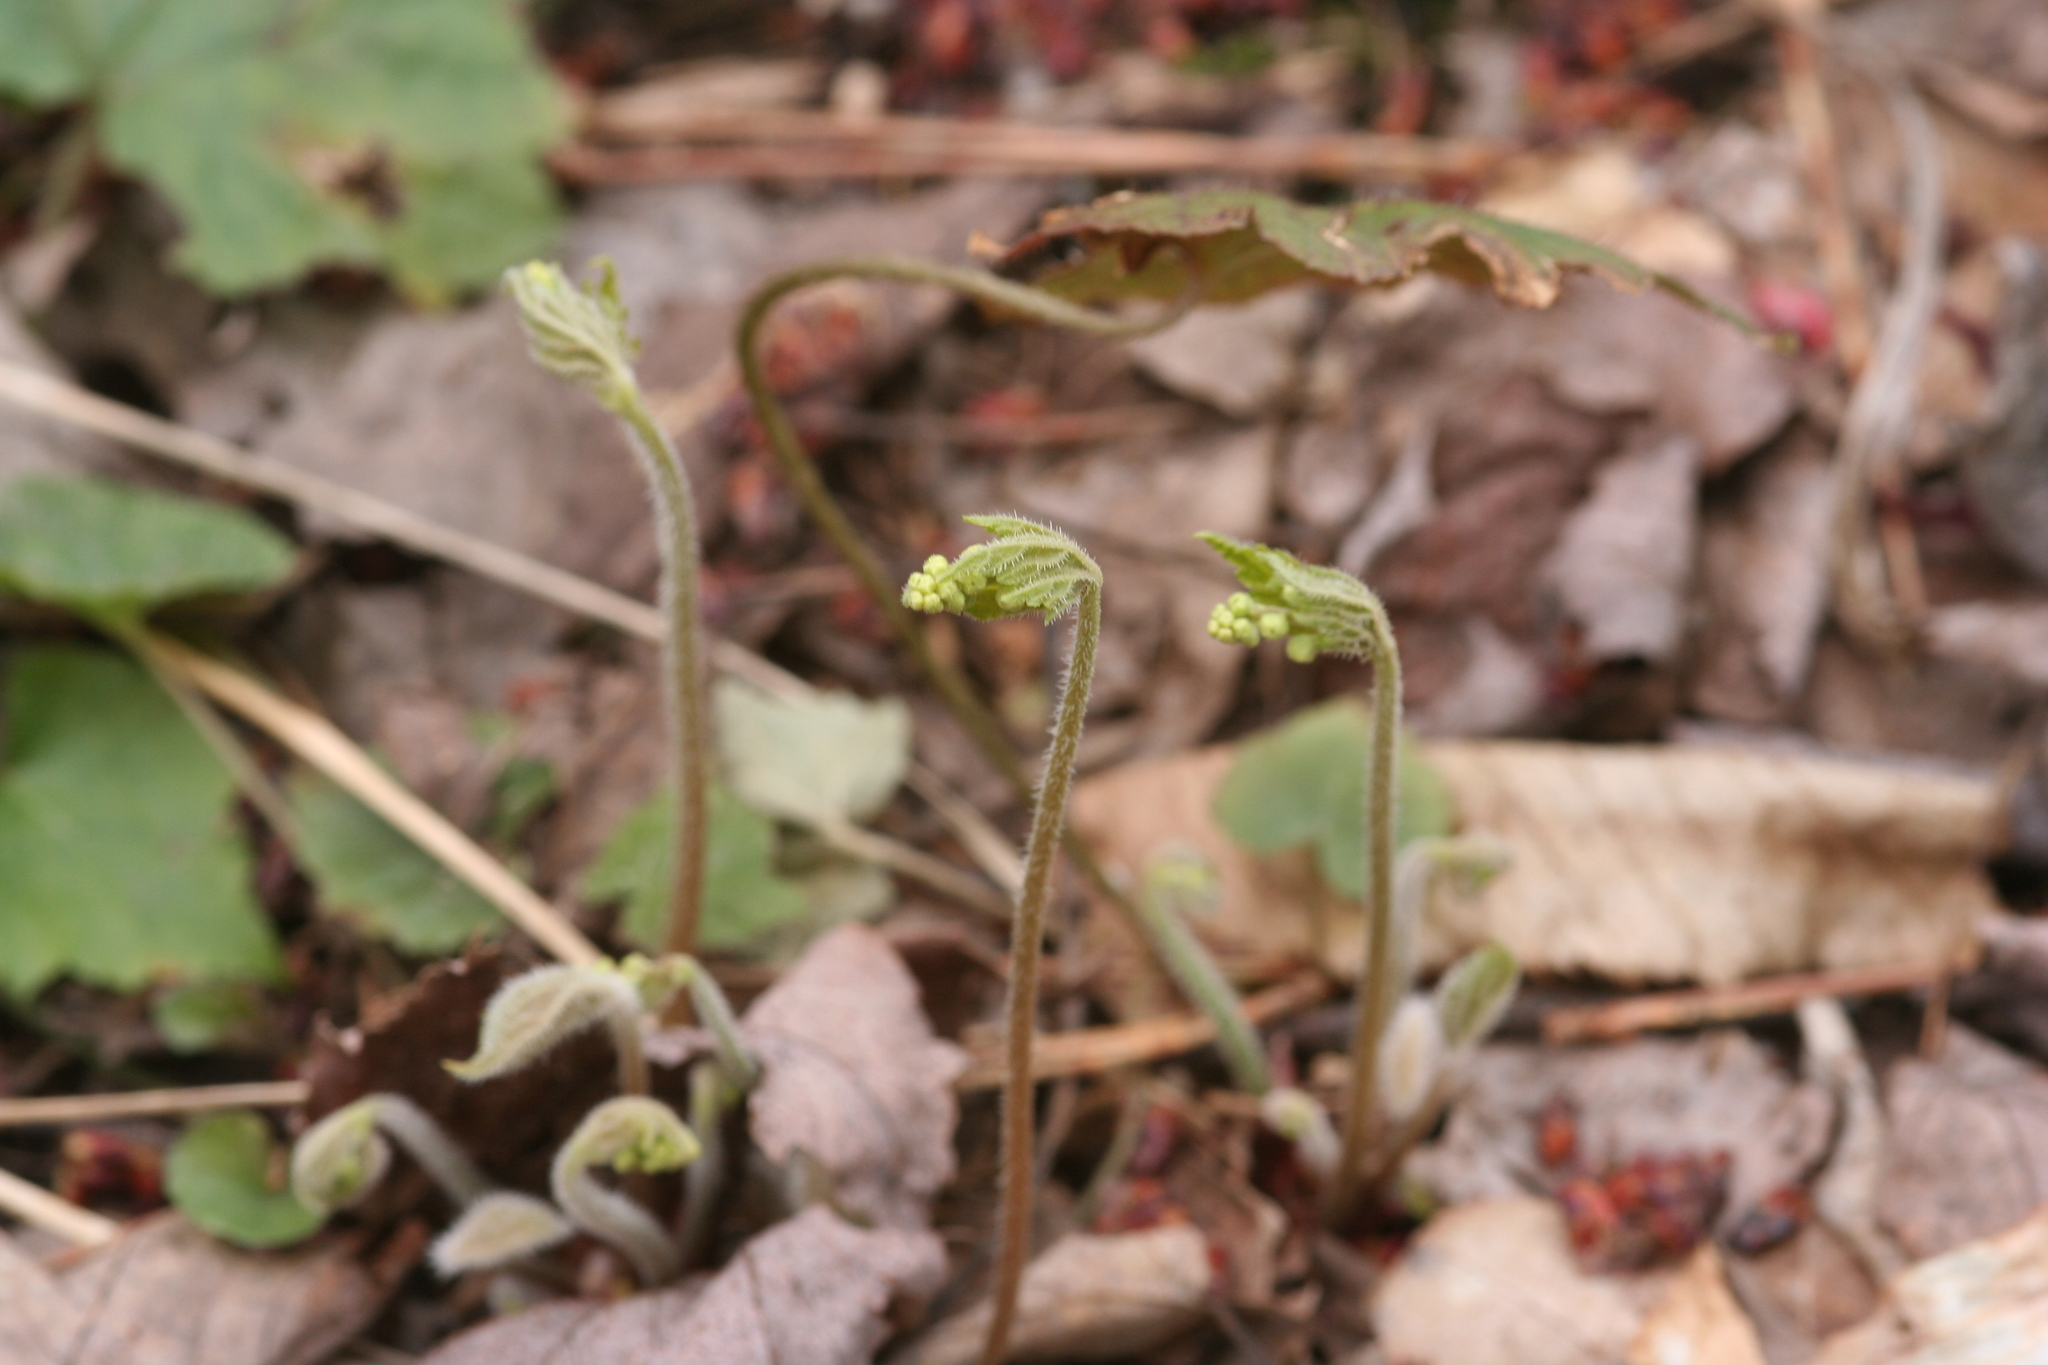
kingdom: Plantae
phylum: Tracheophyta
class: Magnoliopsida
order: Saxifragales
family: Saxifragaceae
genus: Mitella
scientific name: Mitella diphylla
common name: Coolwort
